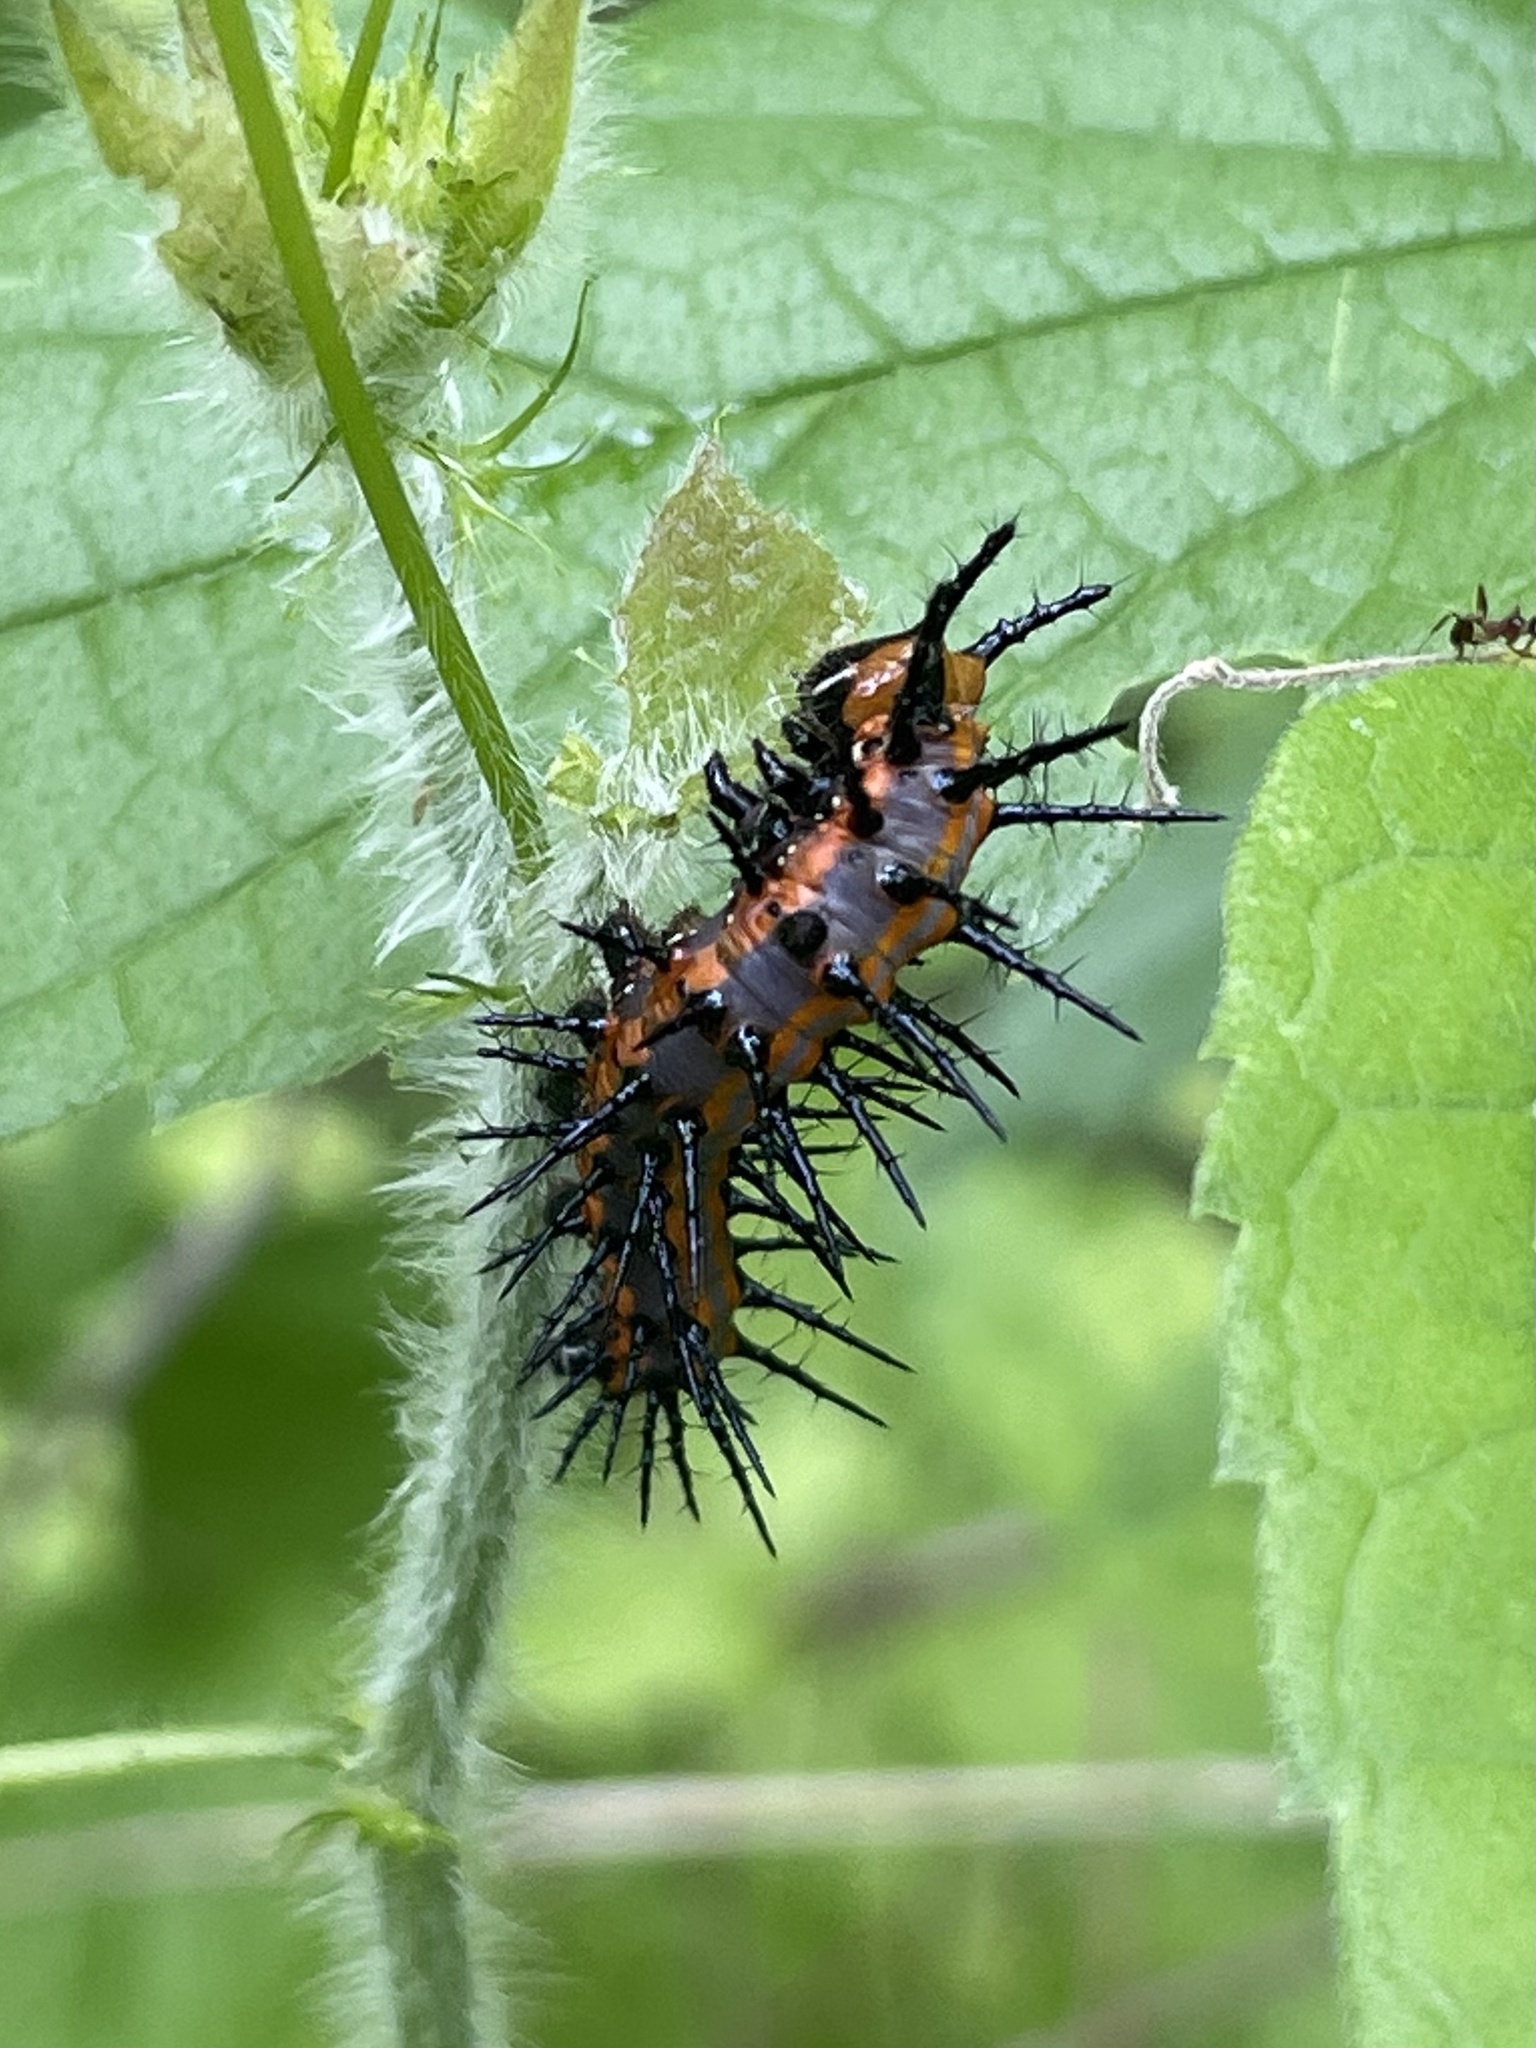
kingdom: Animalia
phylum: Arthropoda
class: Insecta
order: Lepidoptera
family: Nymphalidae
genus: Dione
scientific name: Dione vanillae
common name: Gulf fritillary
